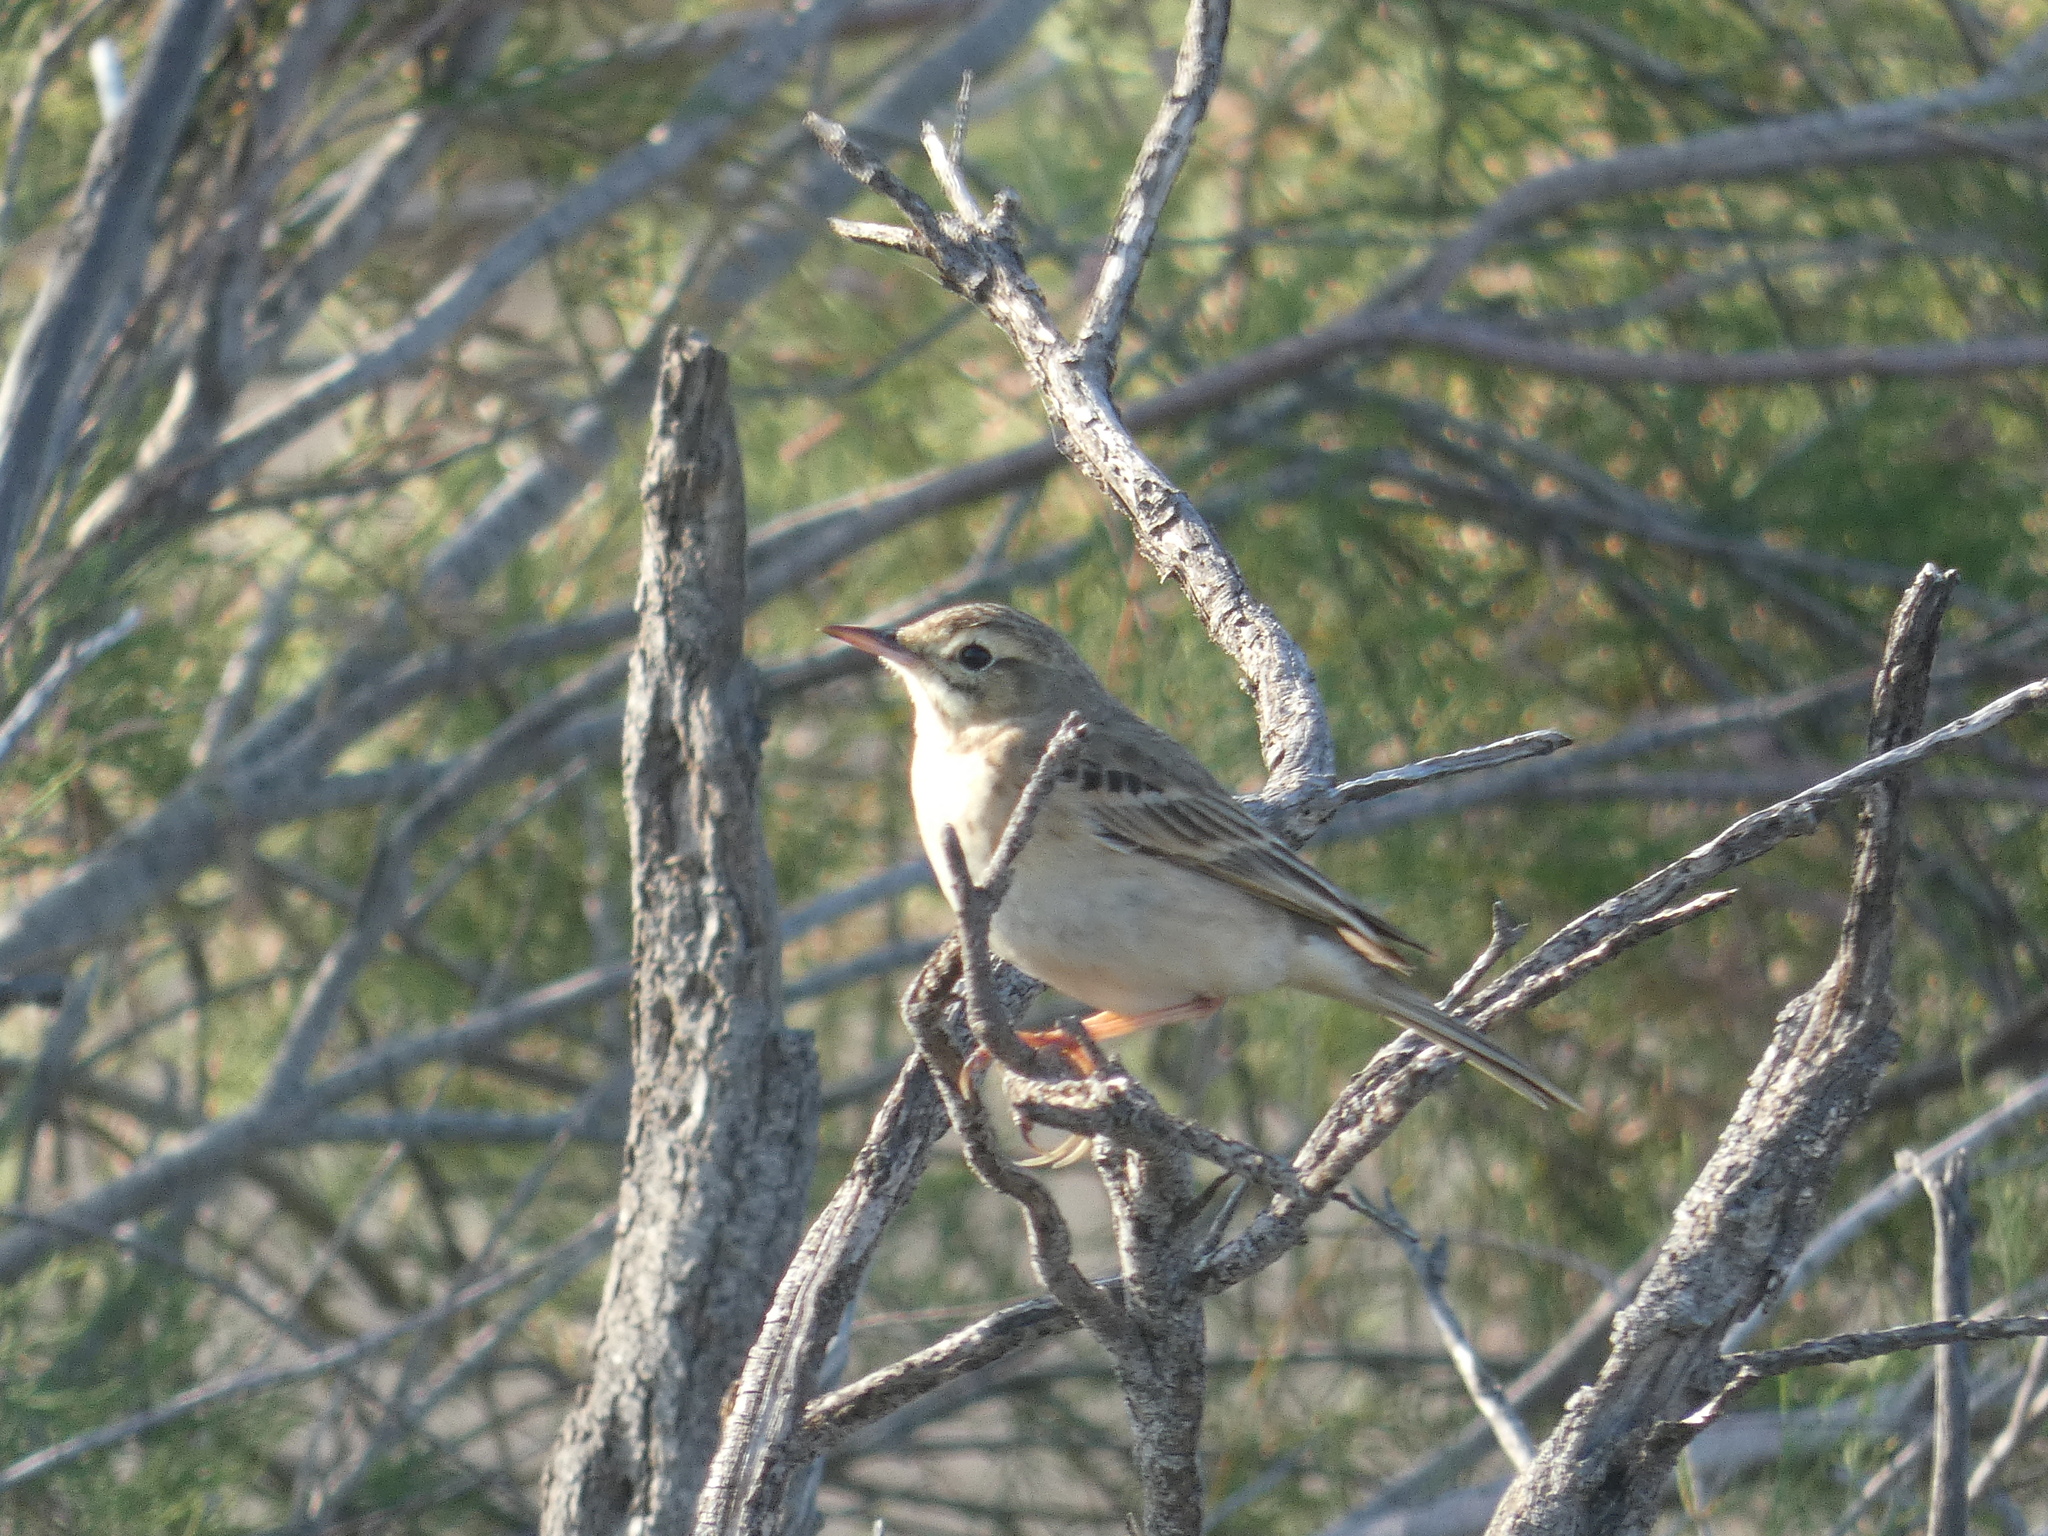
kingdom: Animalia
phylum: Chordata
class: Aves
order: Passeriformes
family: Motacillidae
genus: Anthus
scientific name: Anthus campestris
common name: Tawny pipit
